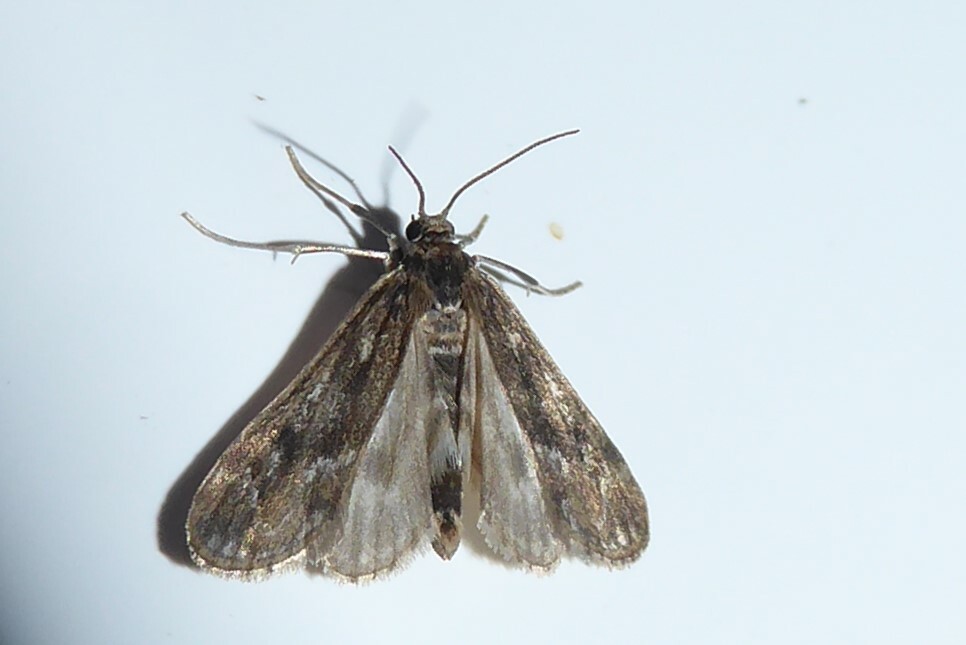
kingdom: Animalia
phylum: Arthropoda
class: Insecta
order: Lepidoptera
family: Crambidae
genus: Hygraula
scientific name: Hygraula nitens
